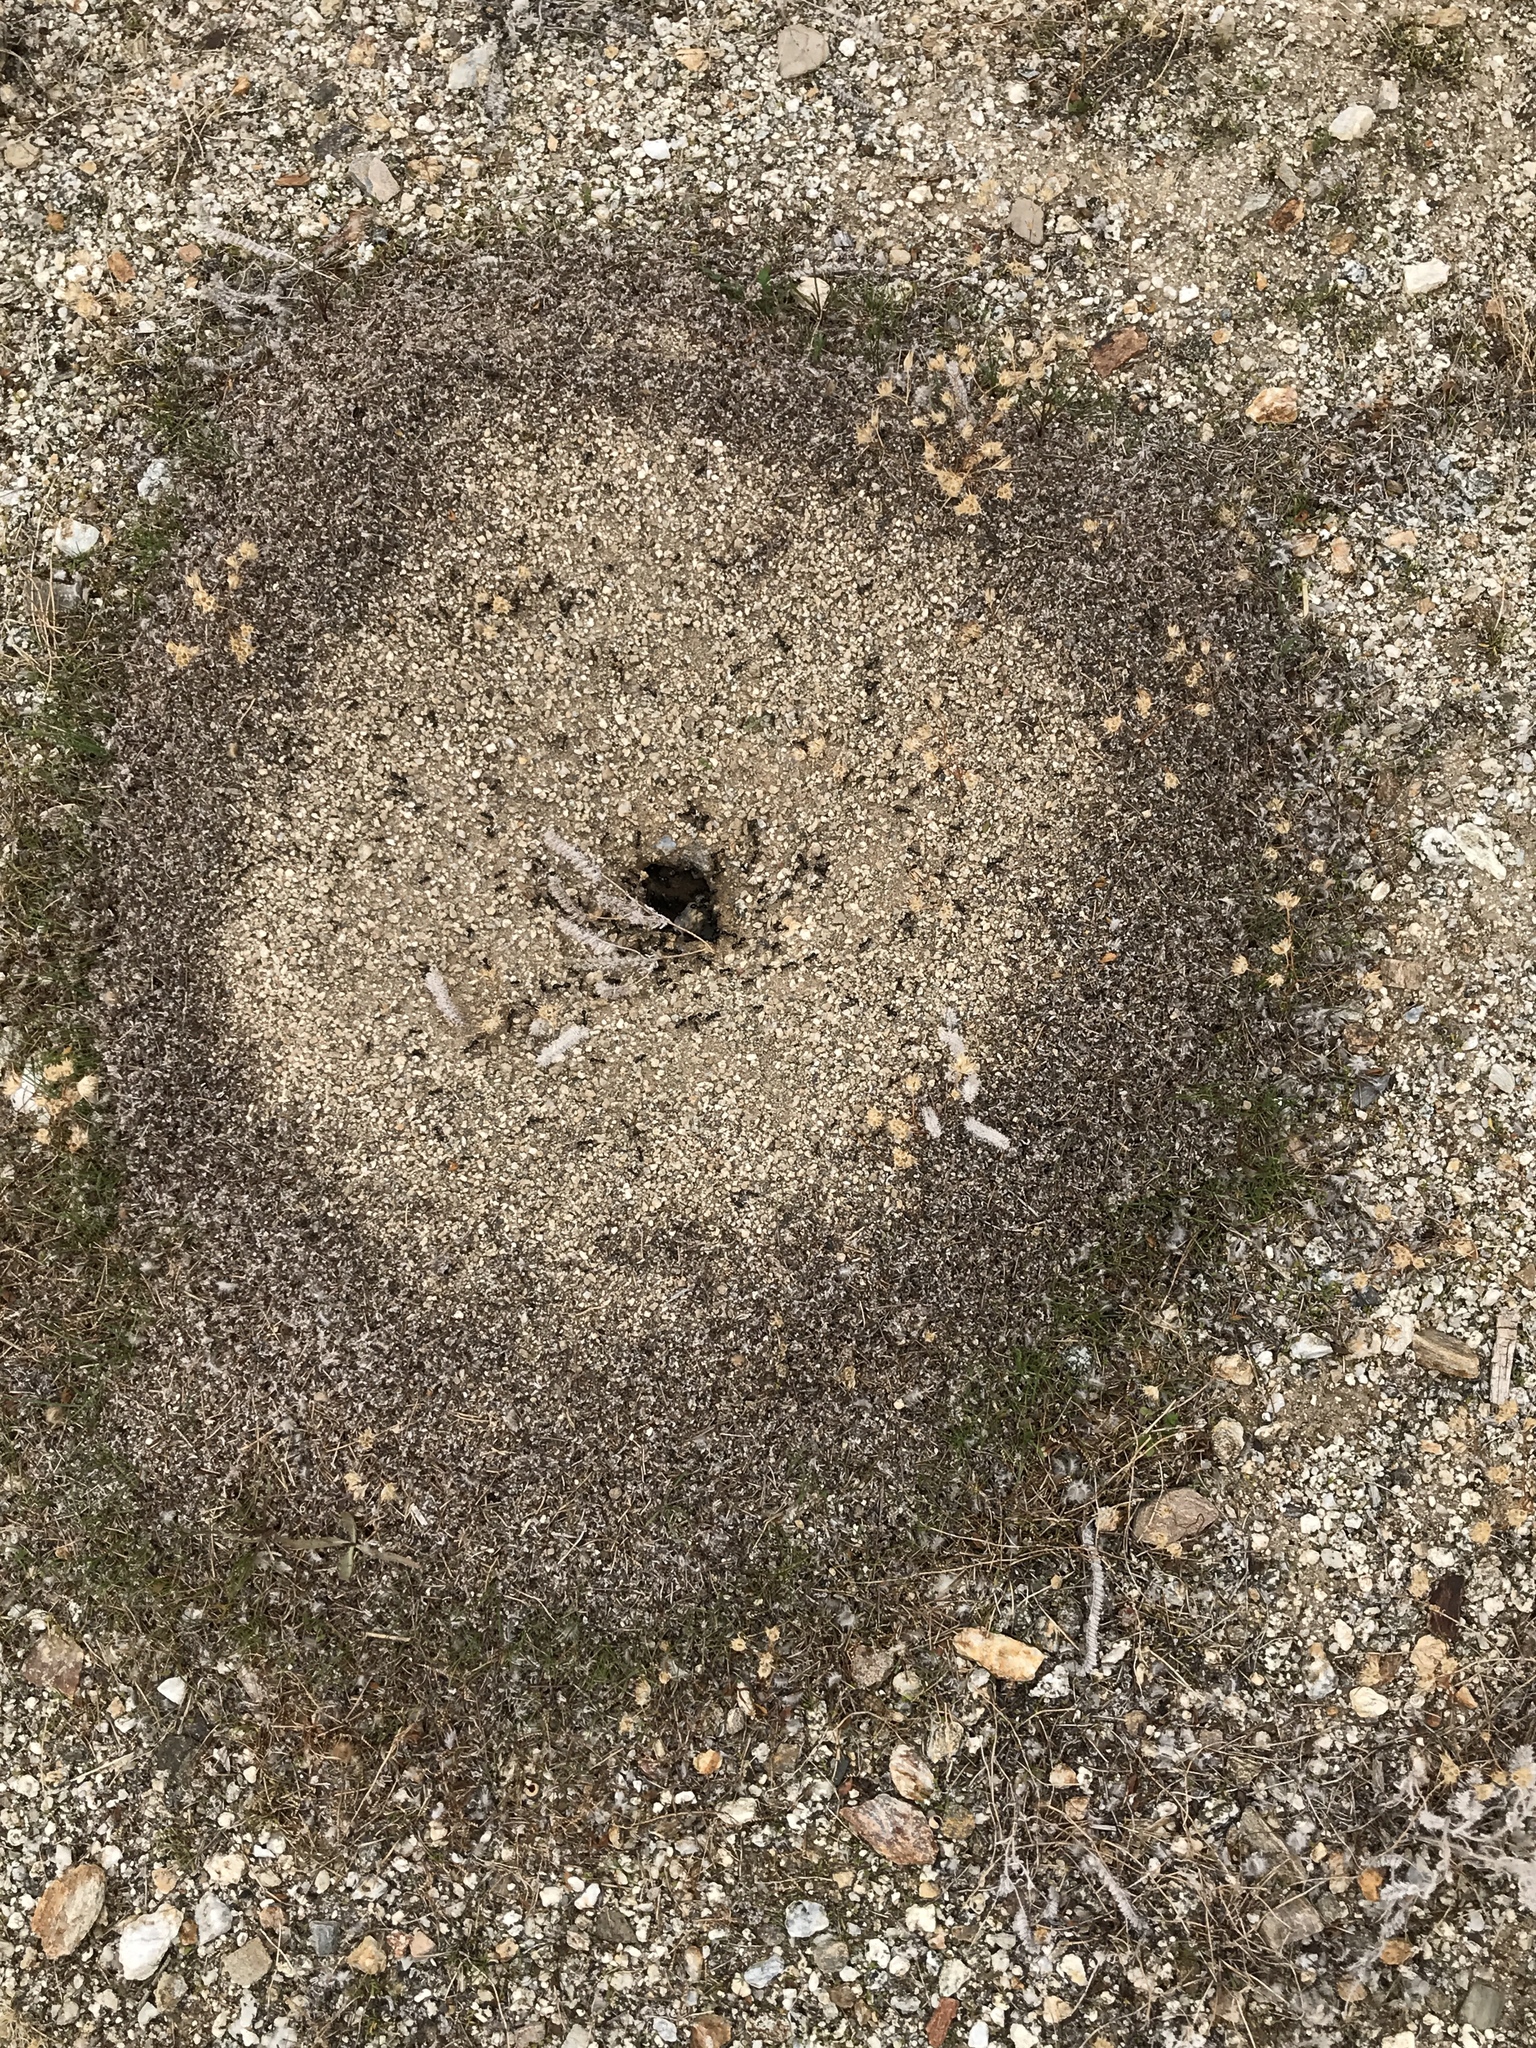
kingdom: Animalia
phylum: Arthropoda
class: Insecta
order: Hymenoptera
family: Formicidae
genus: Messor
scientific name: Messor pergandei
